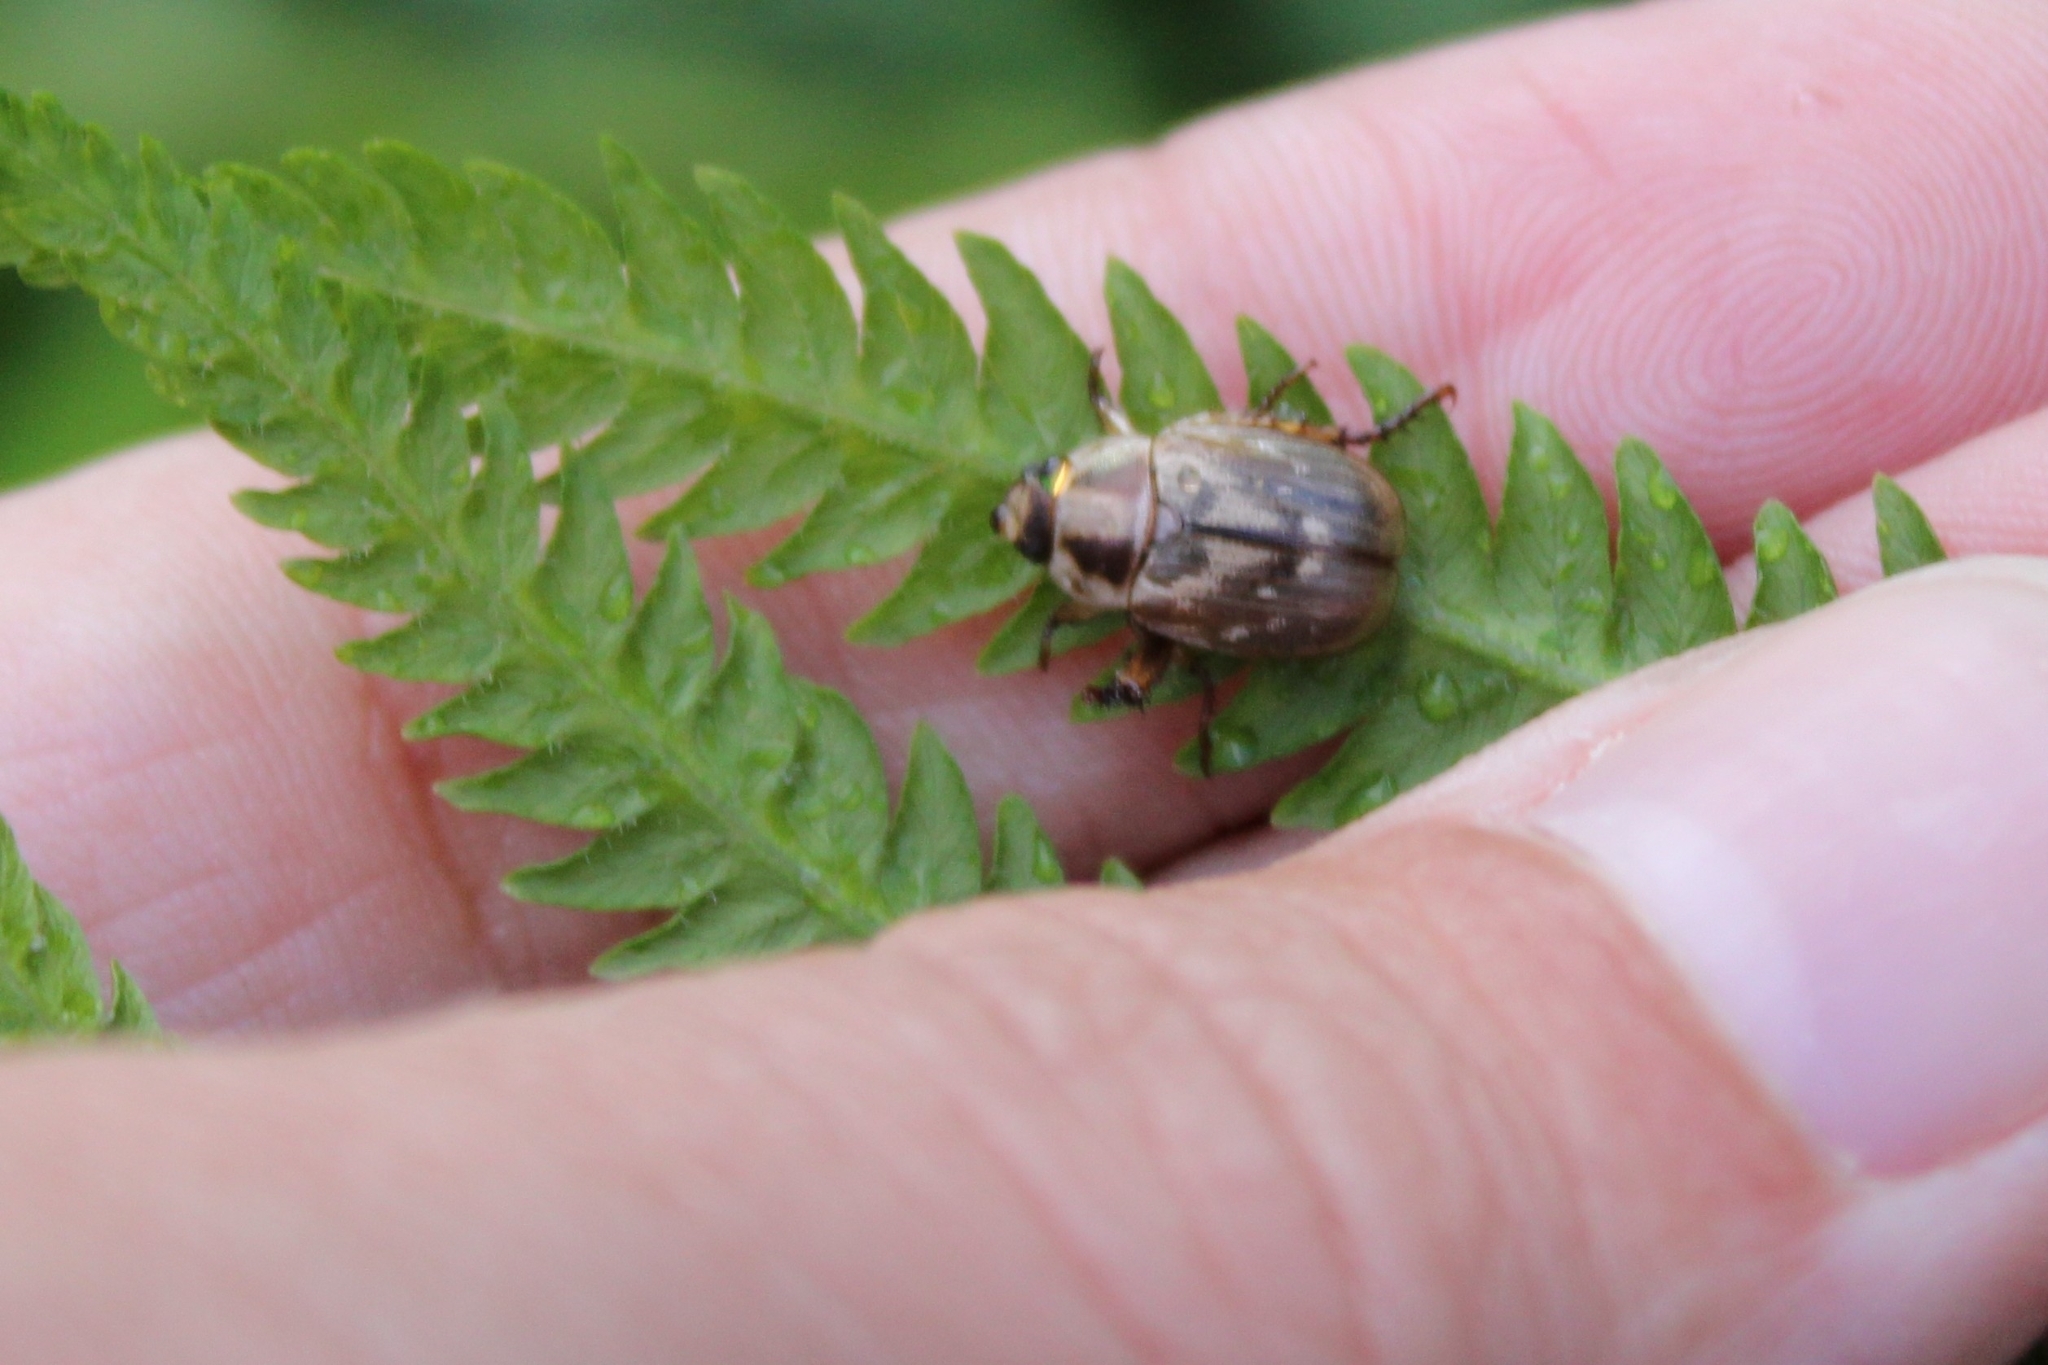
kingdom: Animalia
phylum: Arthropoda
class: Insecta
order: Coleoptera
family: Scarabaeidae
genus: Exomala
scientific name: Exomala orientalis
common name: Oriental beetle
